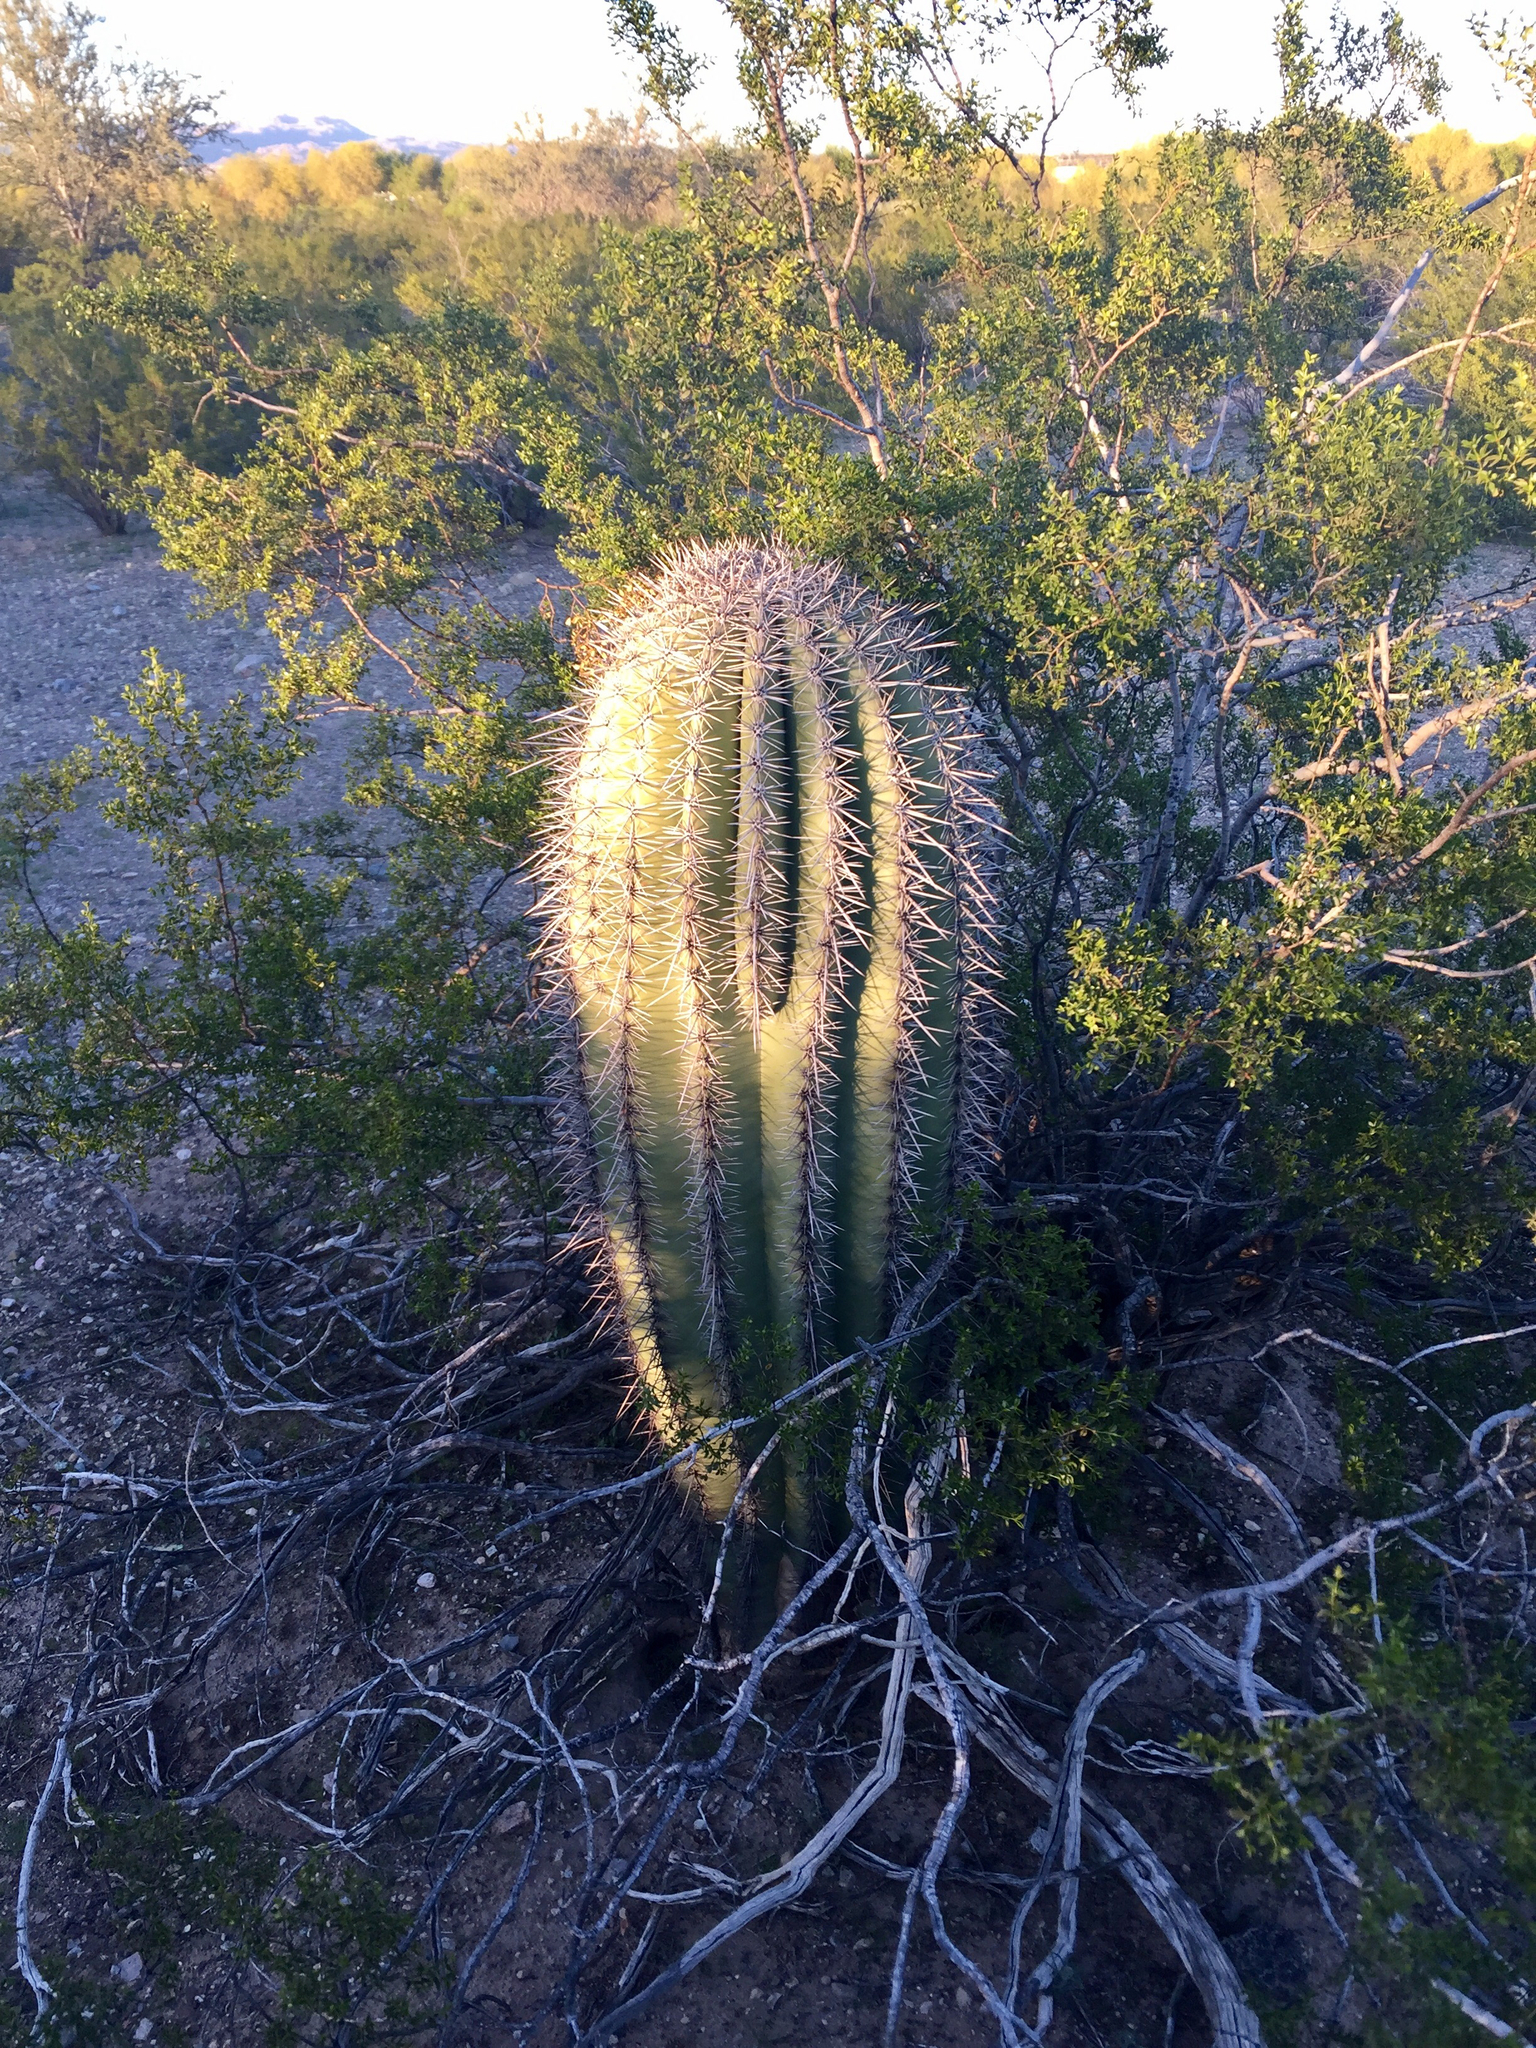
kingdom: Plantae
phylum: Tracheophyta
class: Magnoliopsida
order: Caryophyllales
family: Cactaceae
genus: Carnegiea
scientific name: Carnegiea gigantea
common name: Saguaro
